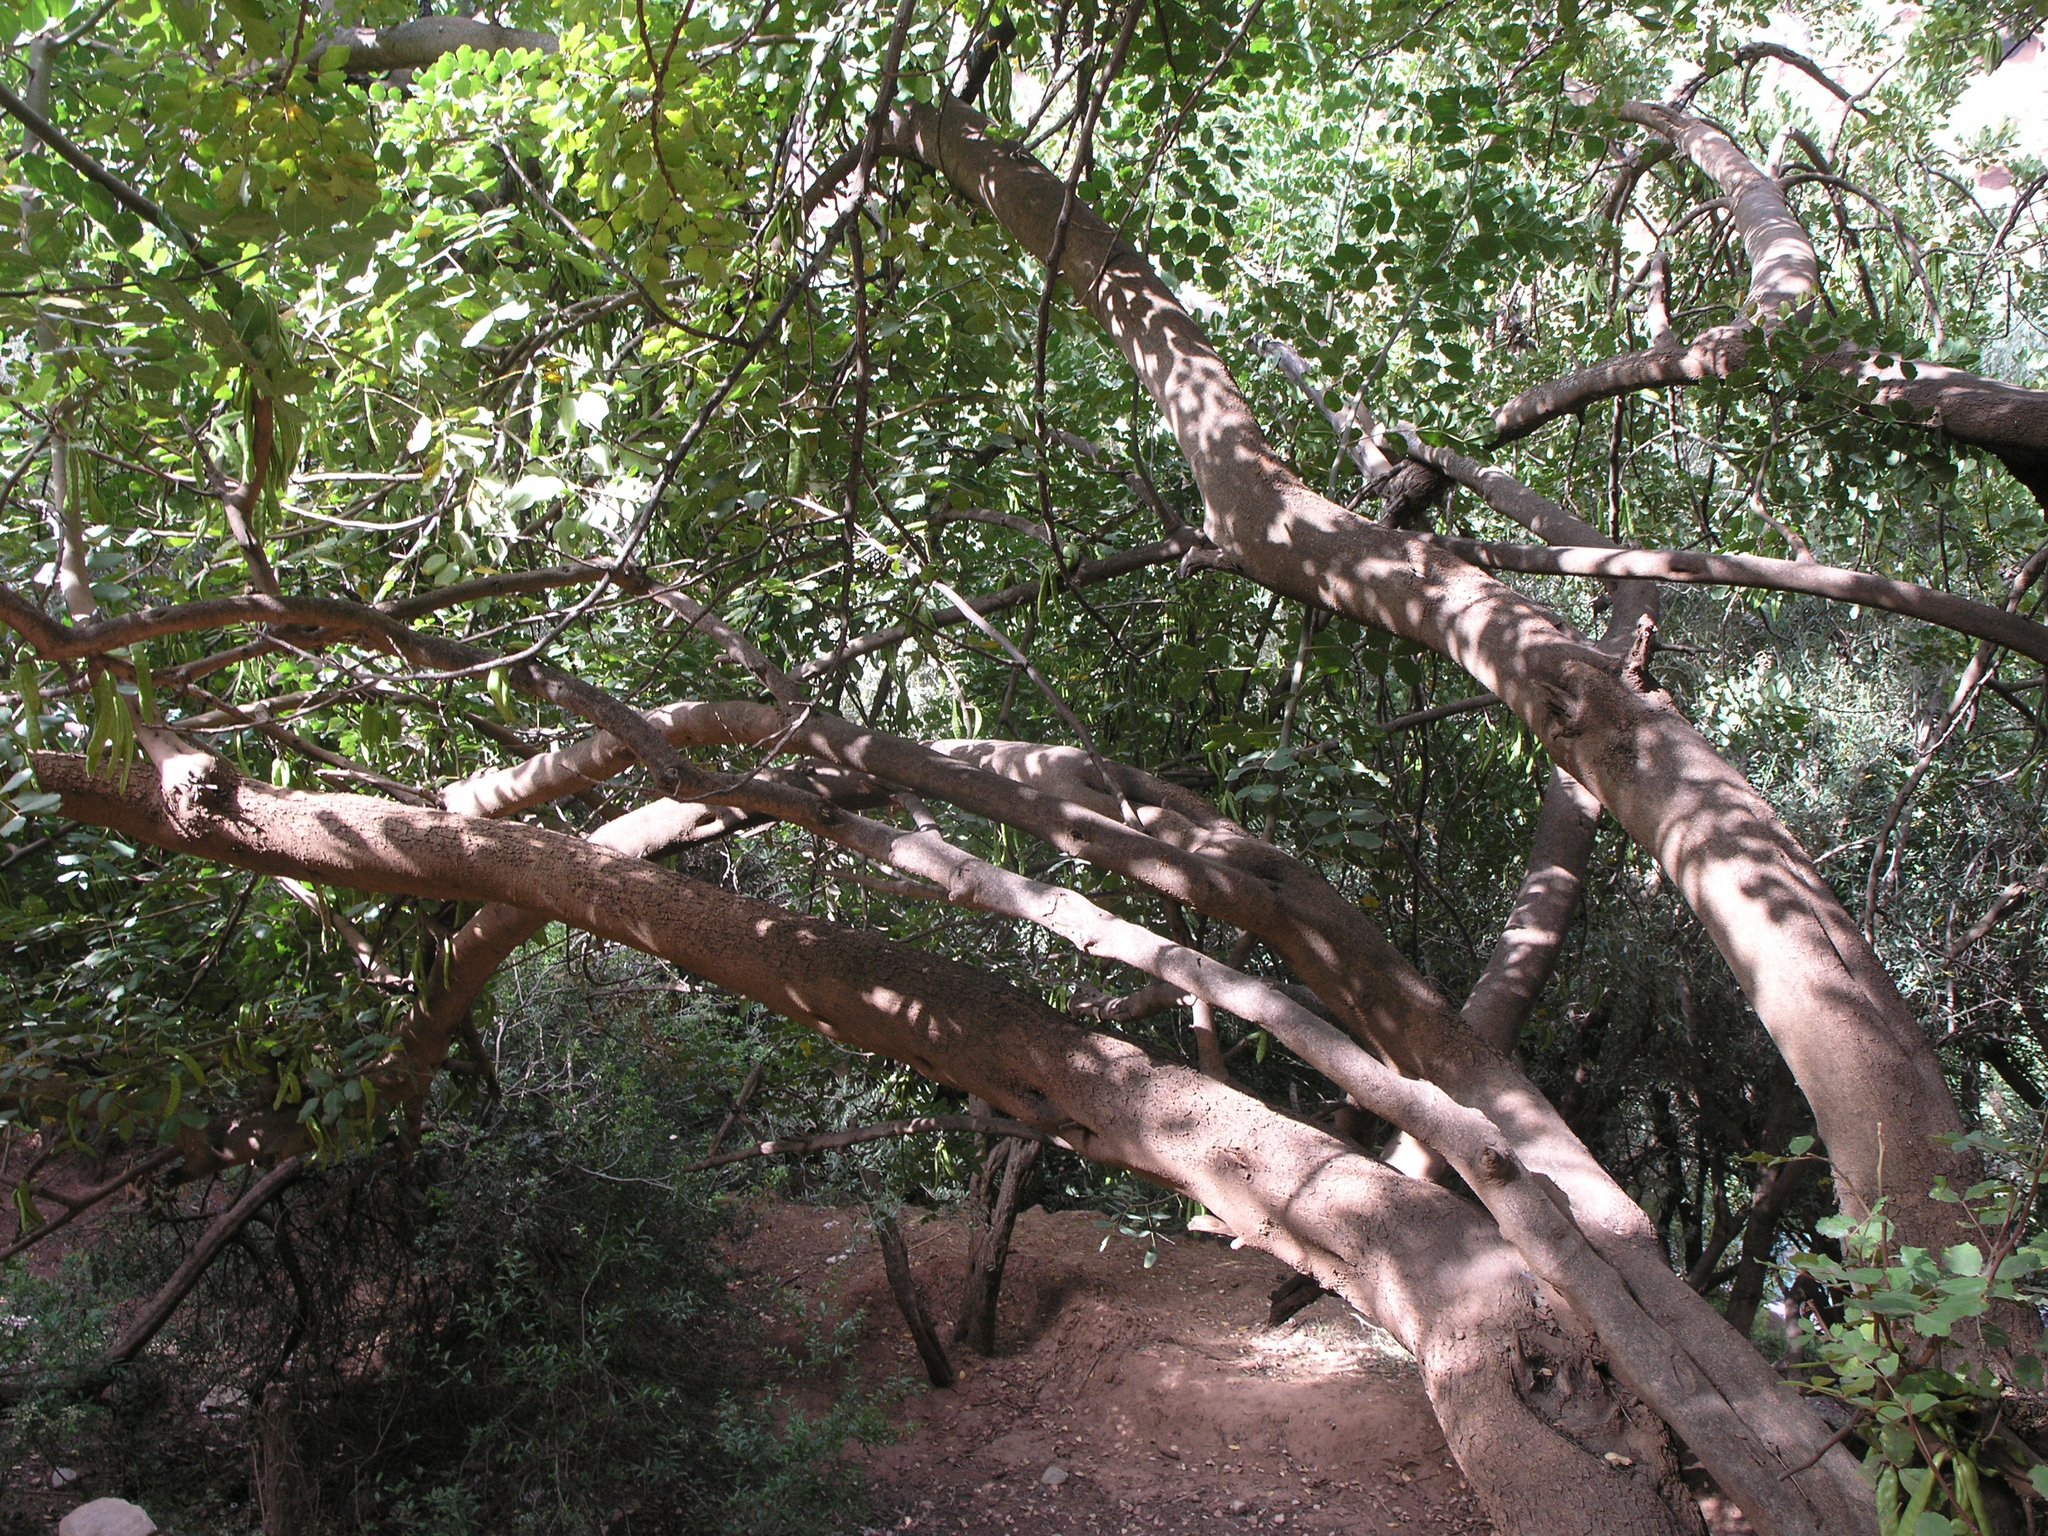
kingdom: Plantae
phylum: Tracheophyta
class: Magnoliopsida
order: Fabales
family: Fabaceae
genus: Ceratonia
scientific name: Ceratonia siliqua
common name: Carob
